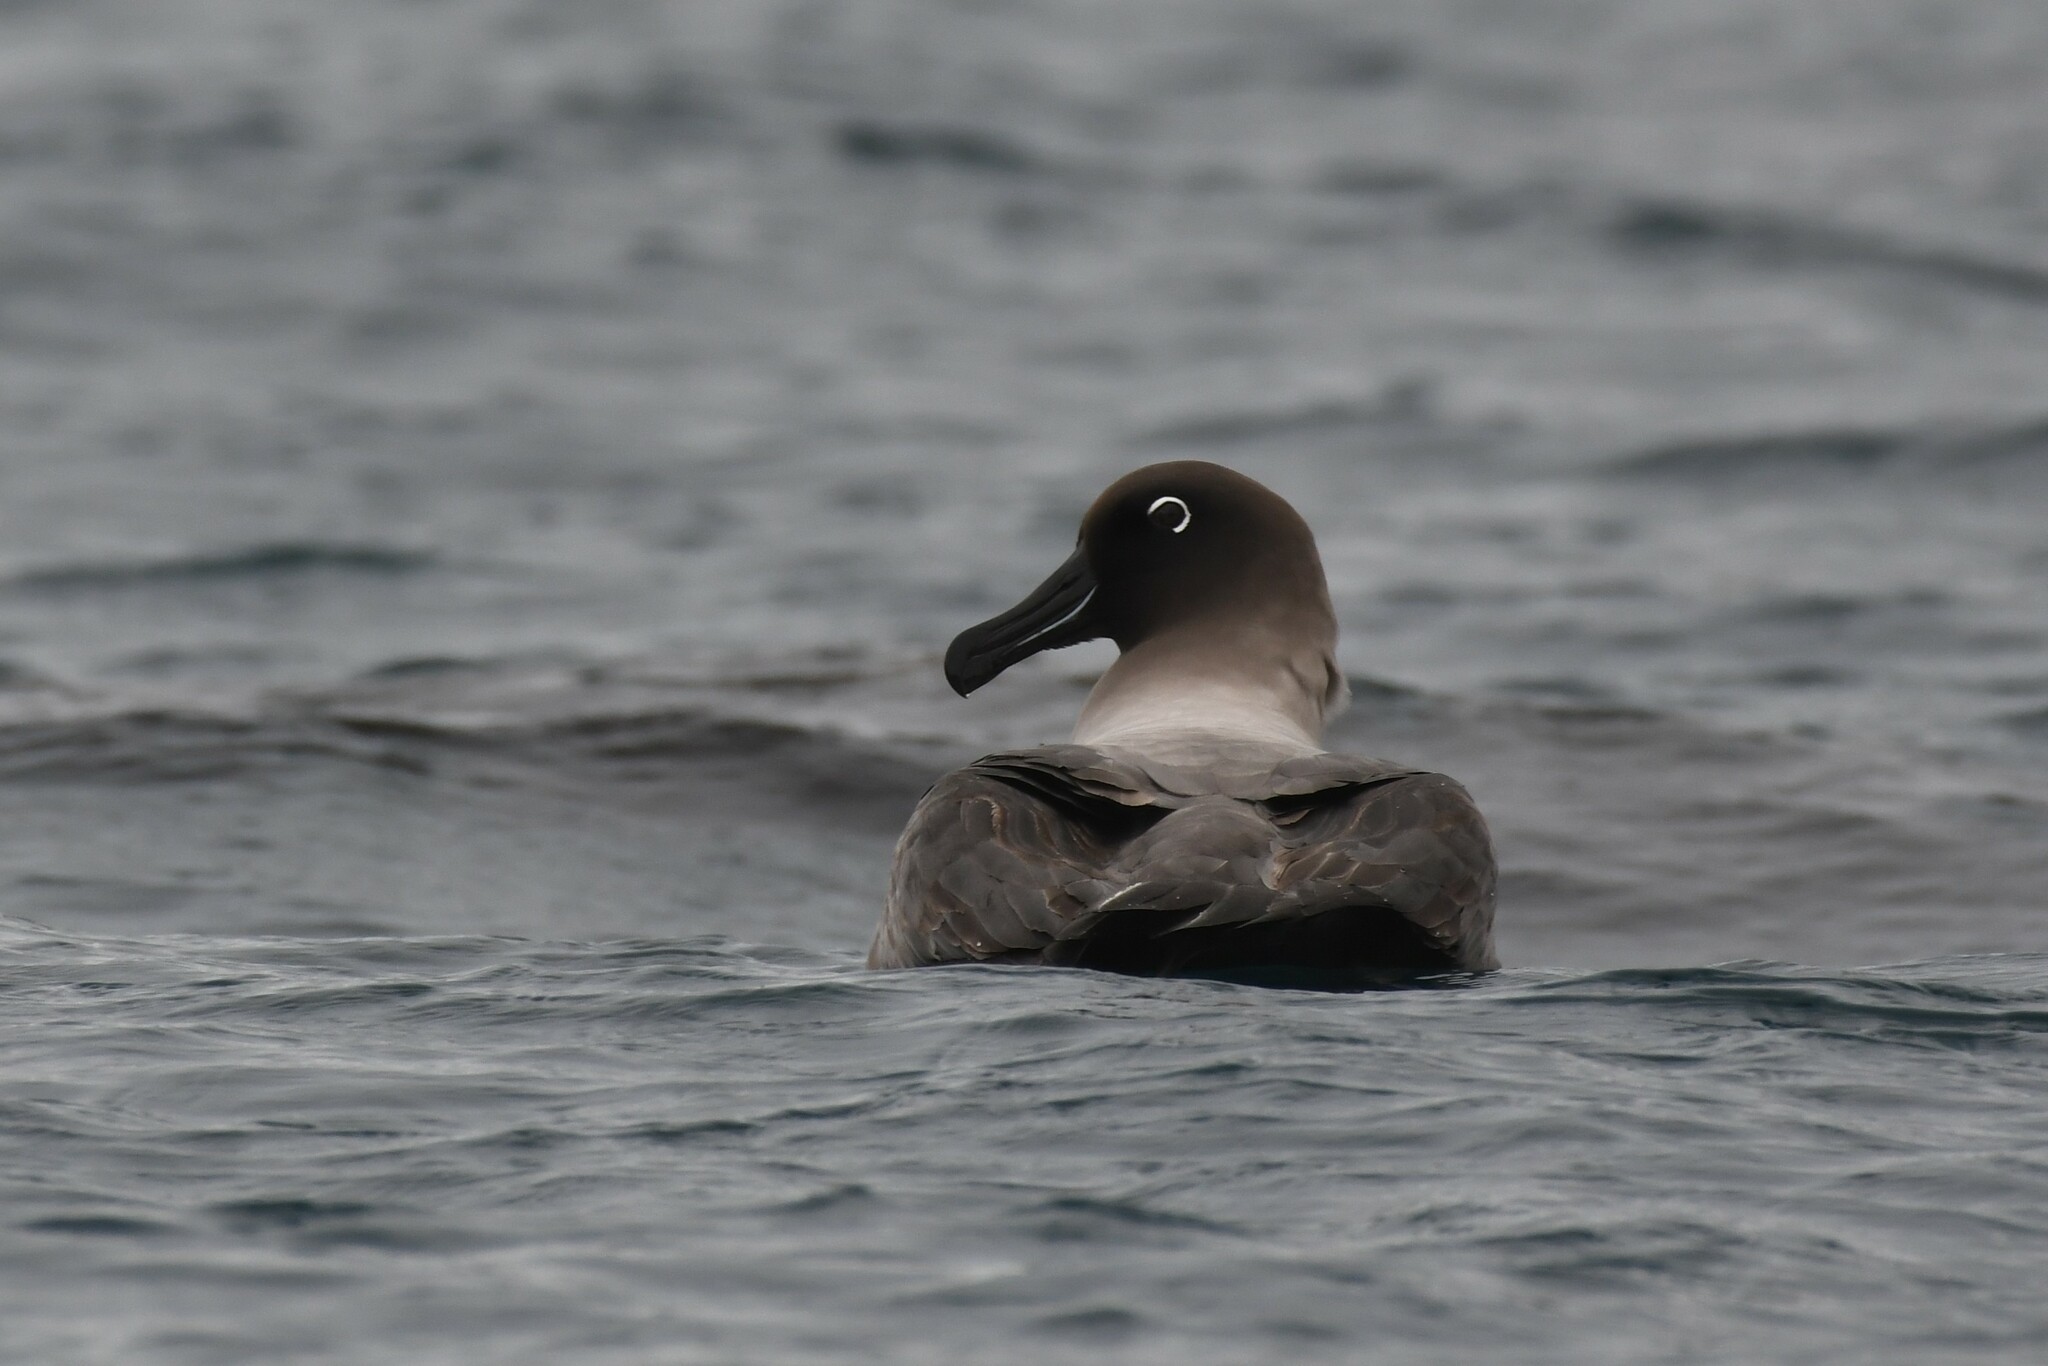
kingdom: Animalia
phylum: Chordata
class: Aves
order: Procellariiformes
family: Diomedeidae
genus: Phoebetria
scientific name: Phoebetria palpebrata
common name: Light-mantled albatross
